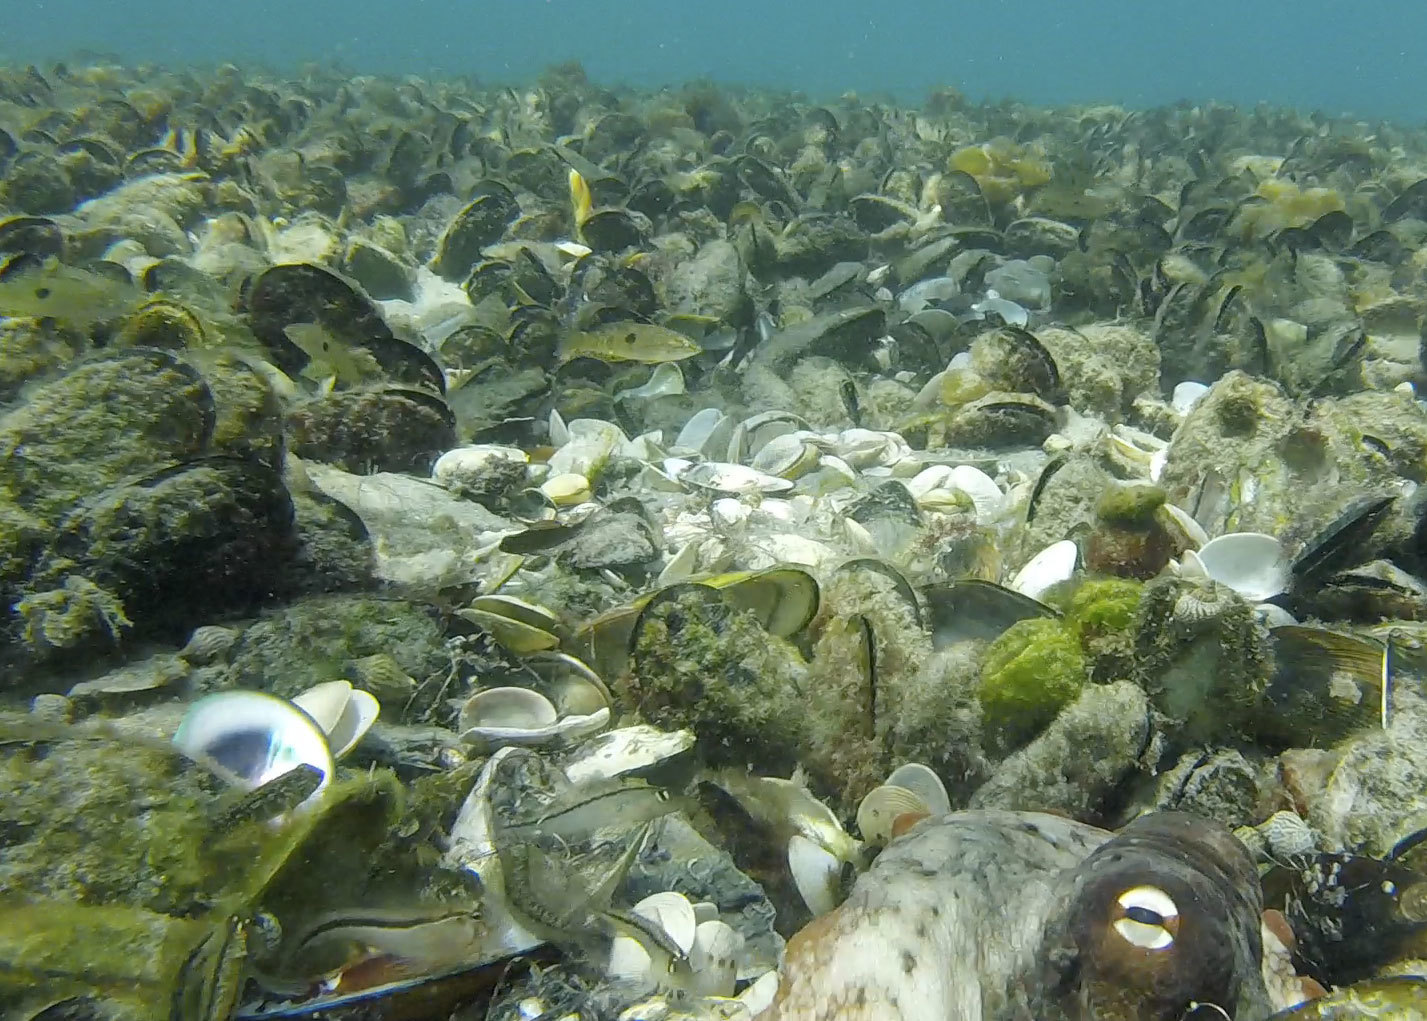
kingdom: Animalia
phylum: Chordata
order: Perciformes
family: Tripterygiidae
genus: Forsterygion
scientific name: Forsterygion lapillum
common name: Common triplefin
